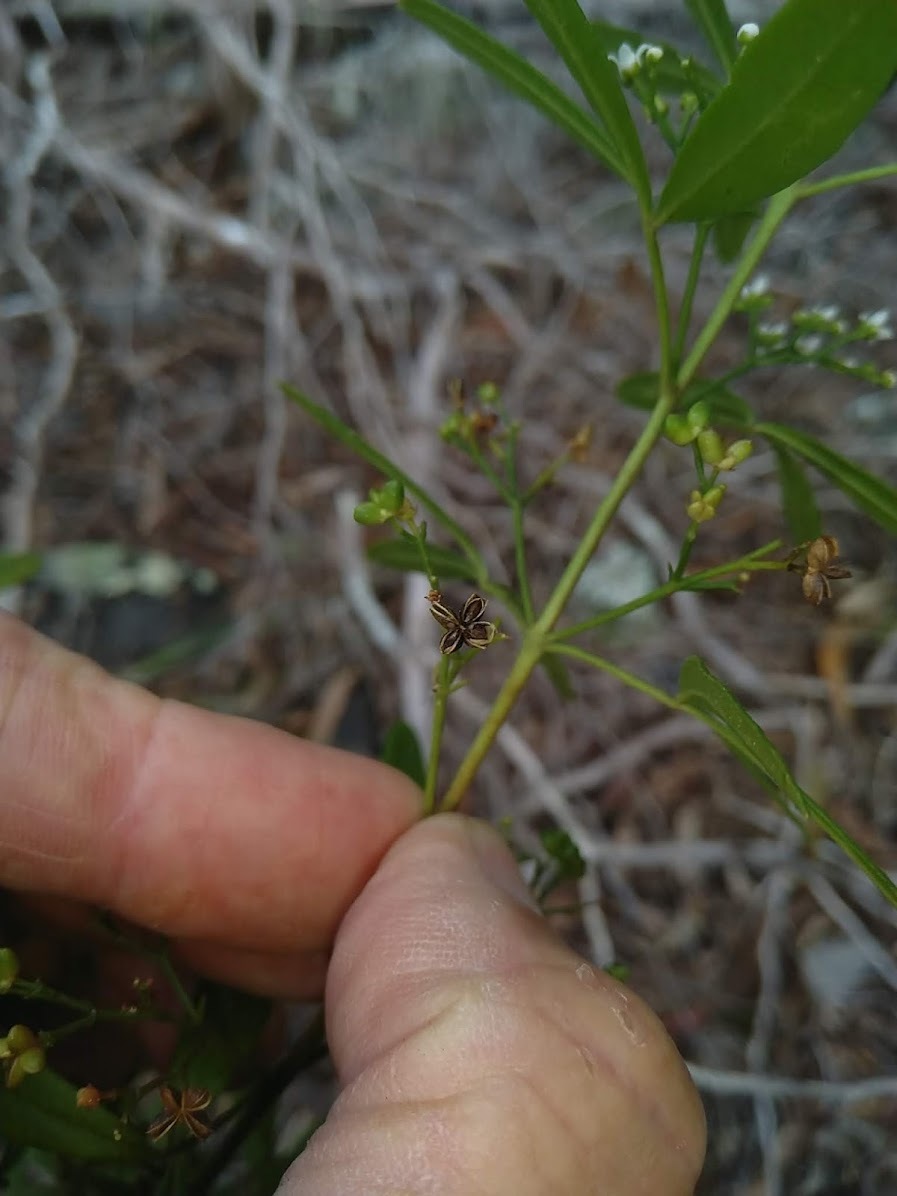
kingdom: Plantae
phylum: Tracheophyta
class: Magnoliopsida
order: Sapindales
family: Rutaceae
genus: Zieria
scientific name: Zieria smithii
